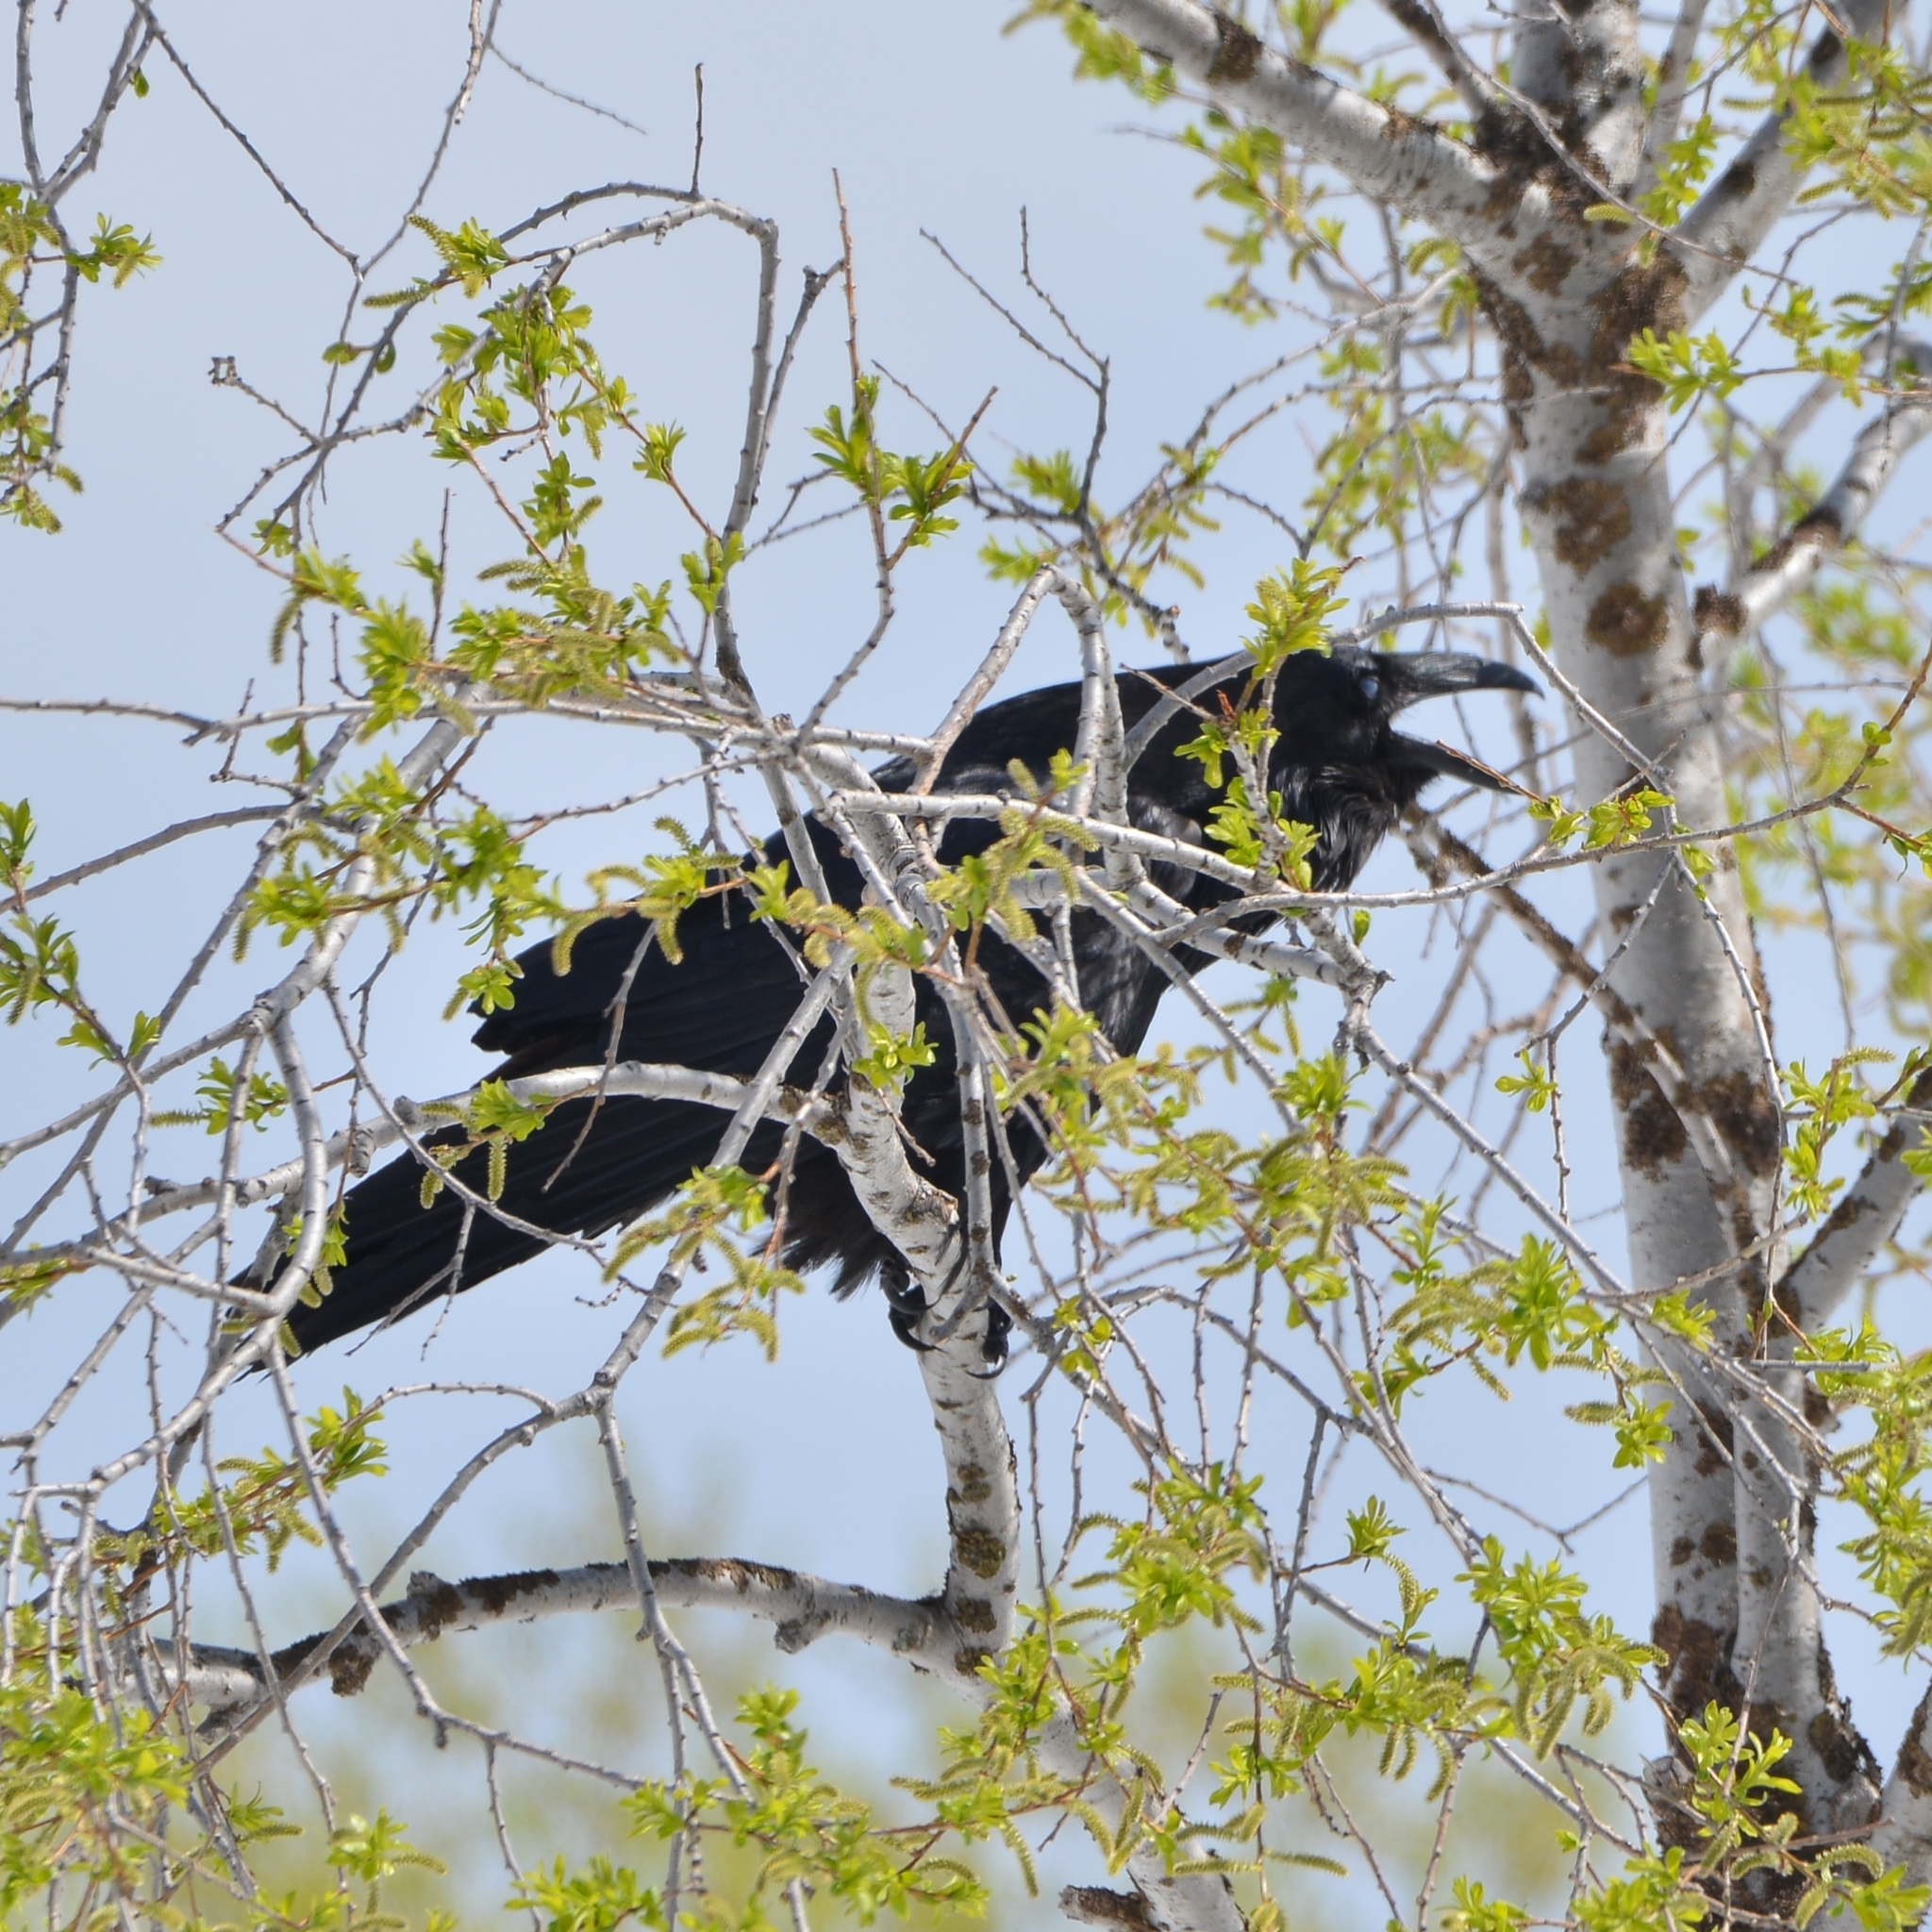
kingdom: Animalia
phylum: Chordata
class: Aves
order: Passeriformes
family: Corvidae
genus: Corvus
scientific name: Corvus corax
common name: Common raven
